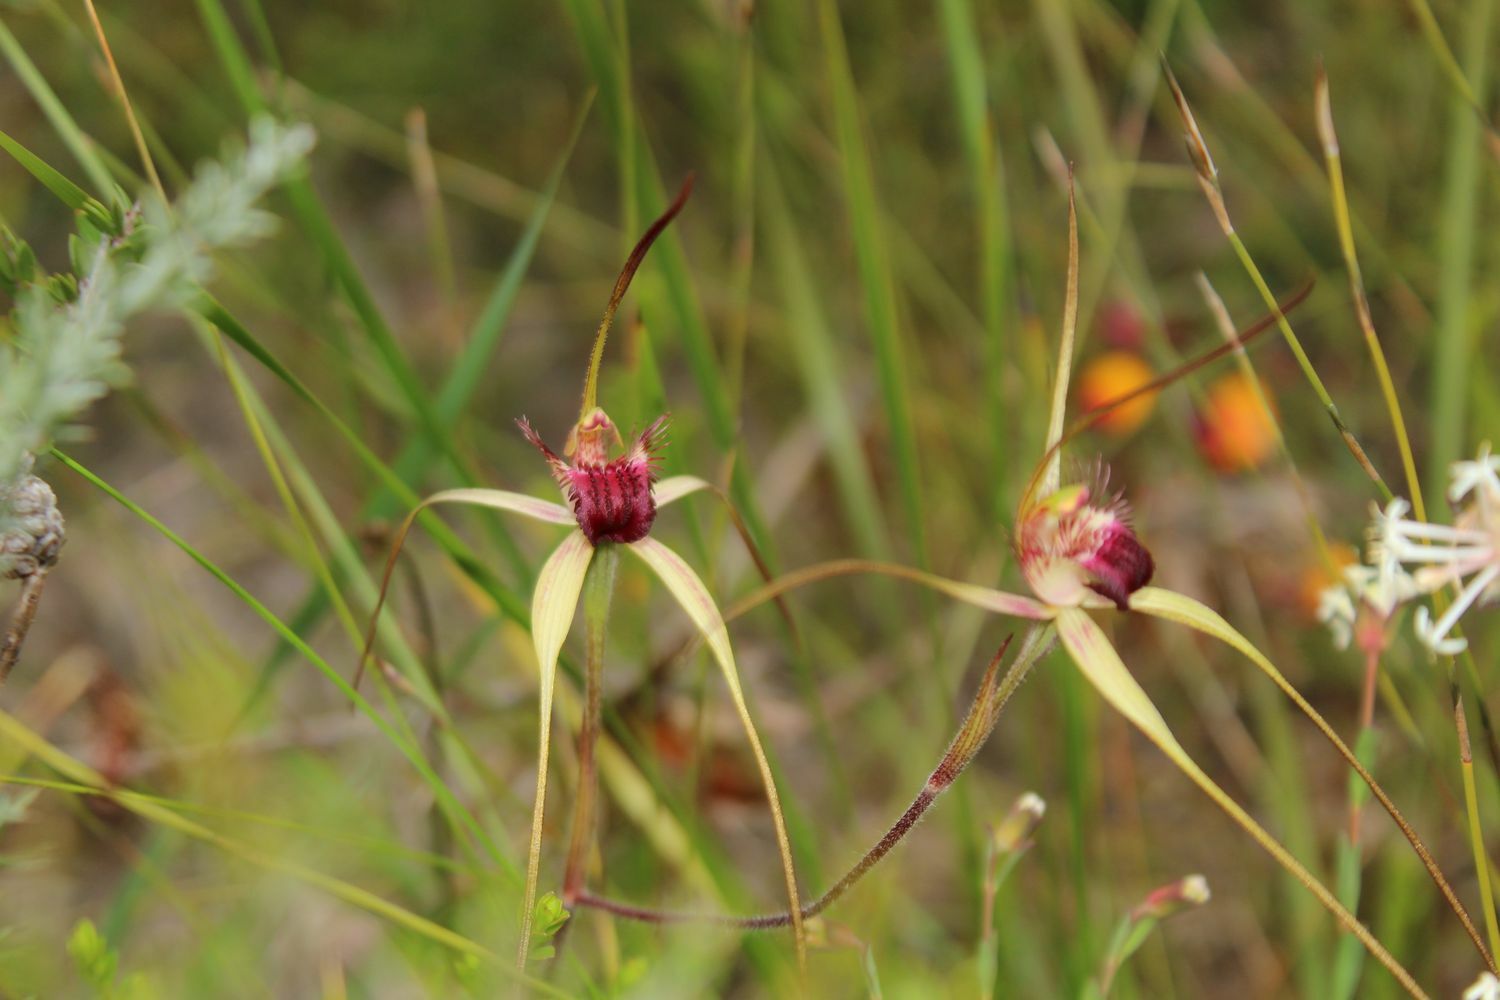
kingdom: Plantae
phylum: Tracheophyta
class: Liliopsida
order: Asparagales
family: Orchidaceae
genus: Caladenia
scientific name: Caladenia heberleana
